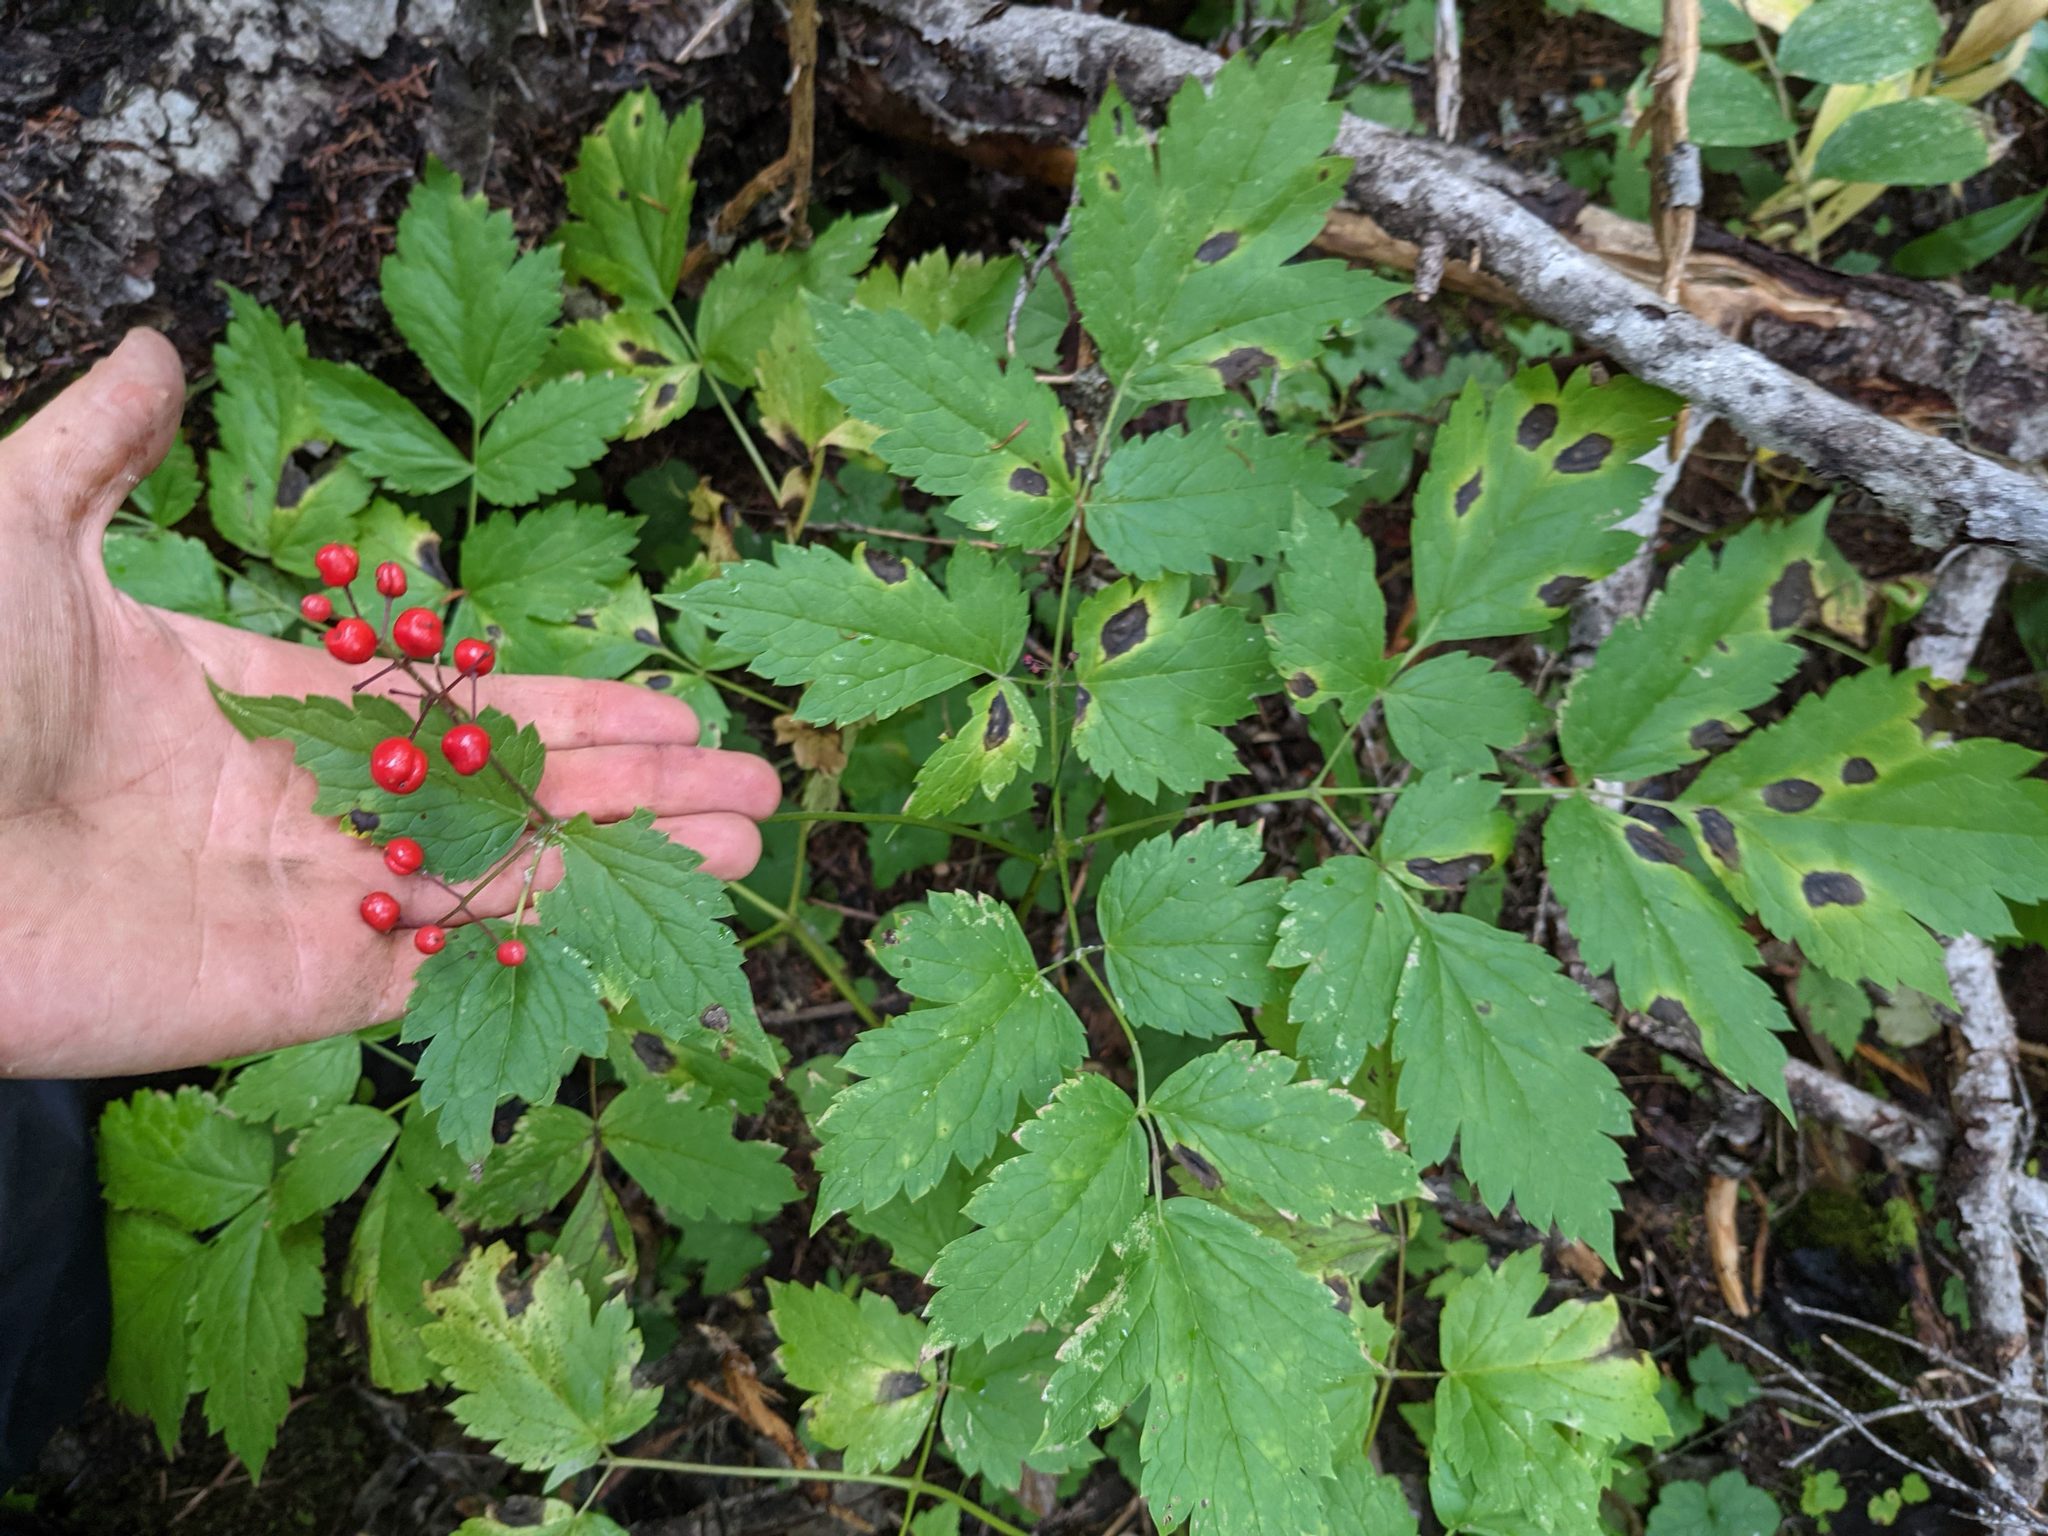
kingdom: Plantae
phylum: Tracheophyta
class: Magnoliopsida
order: Ranunculales
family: Ranunculaceae
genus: Actaea
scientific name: Actaea rubra
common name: Red baneberry
